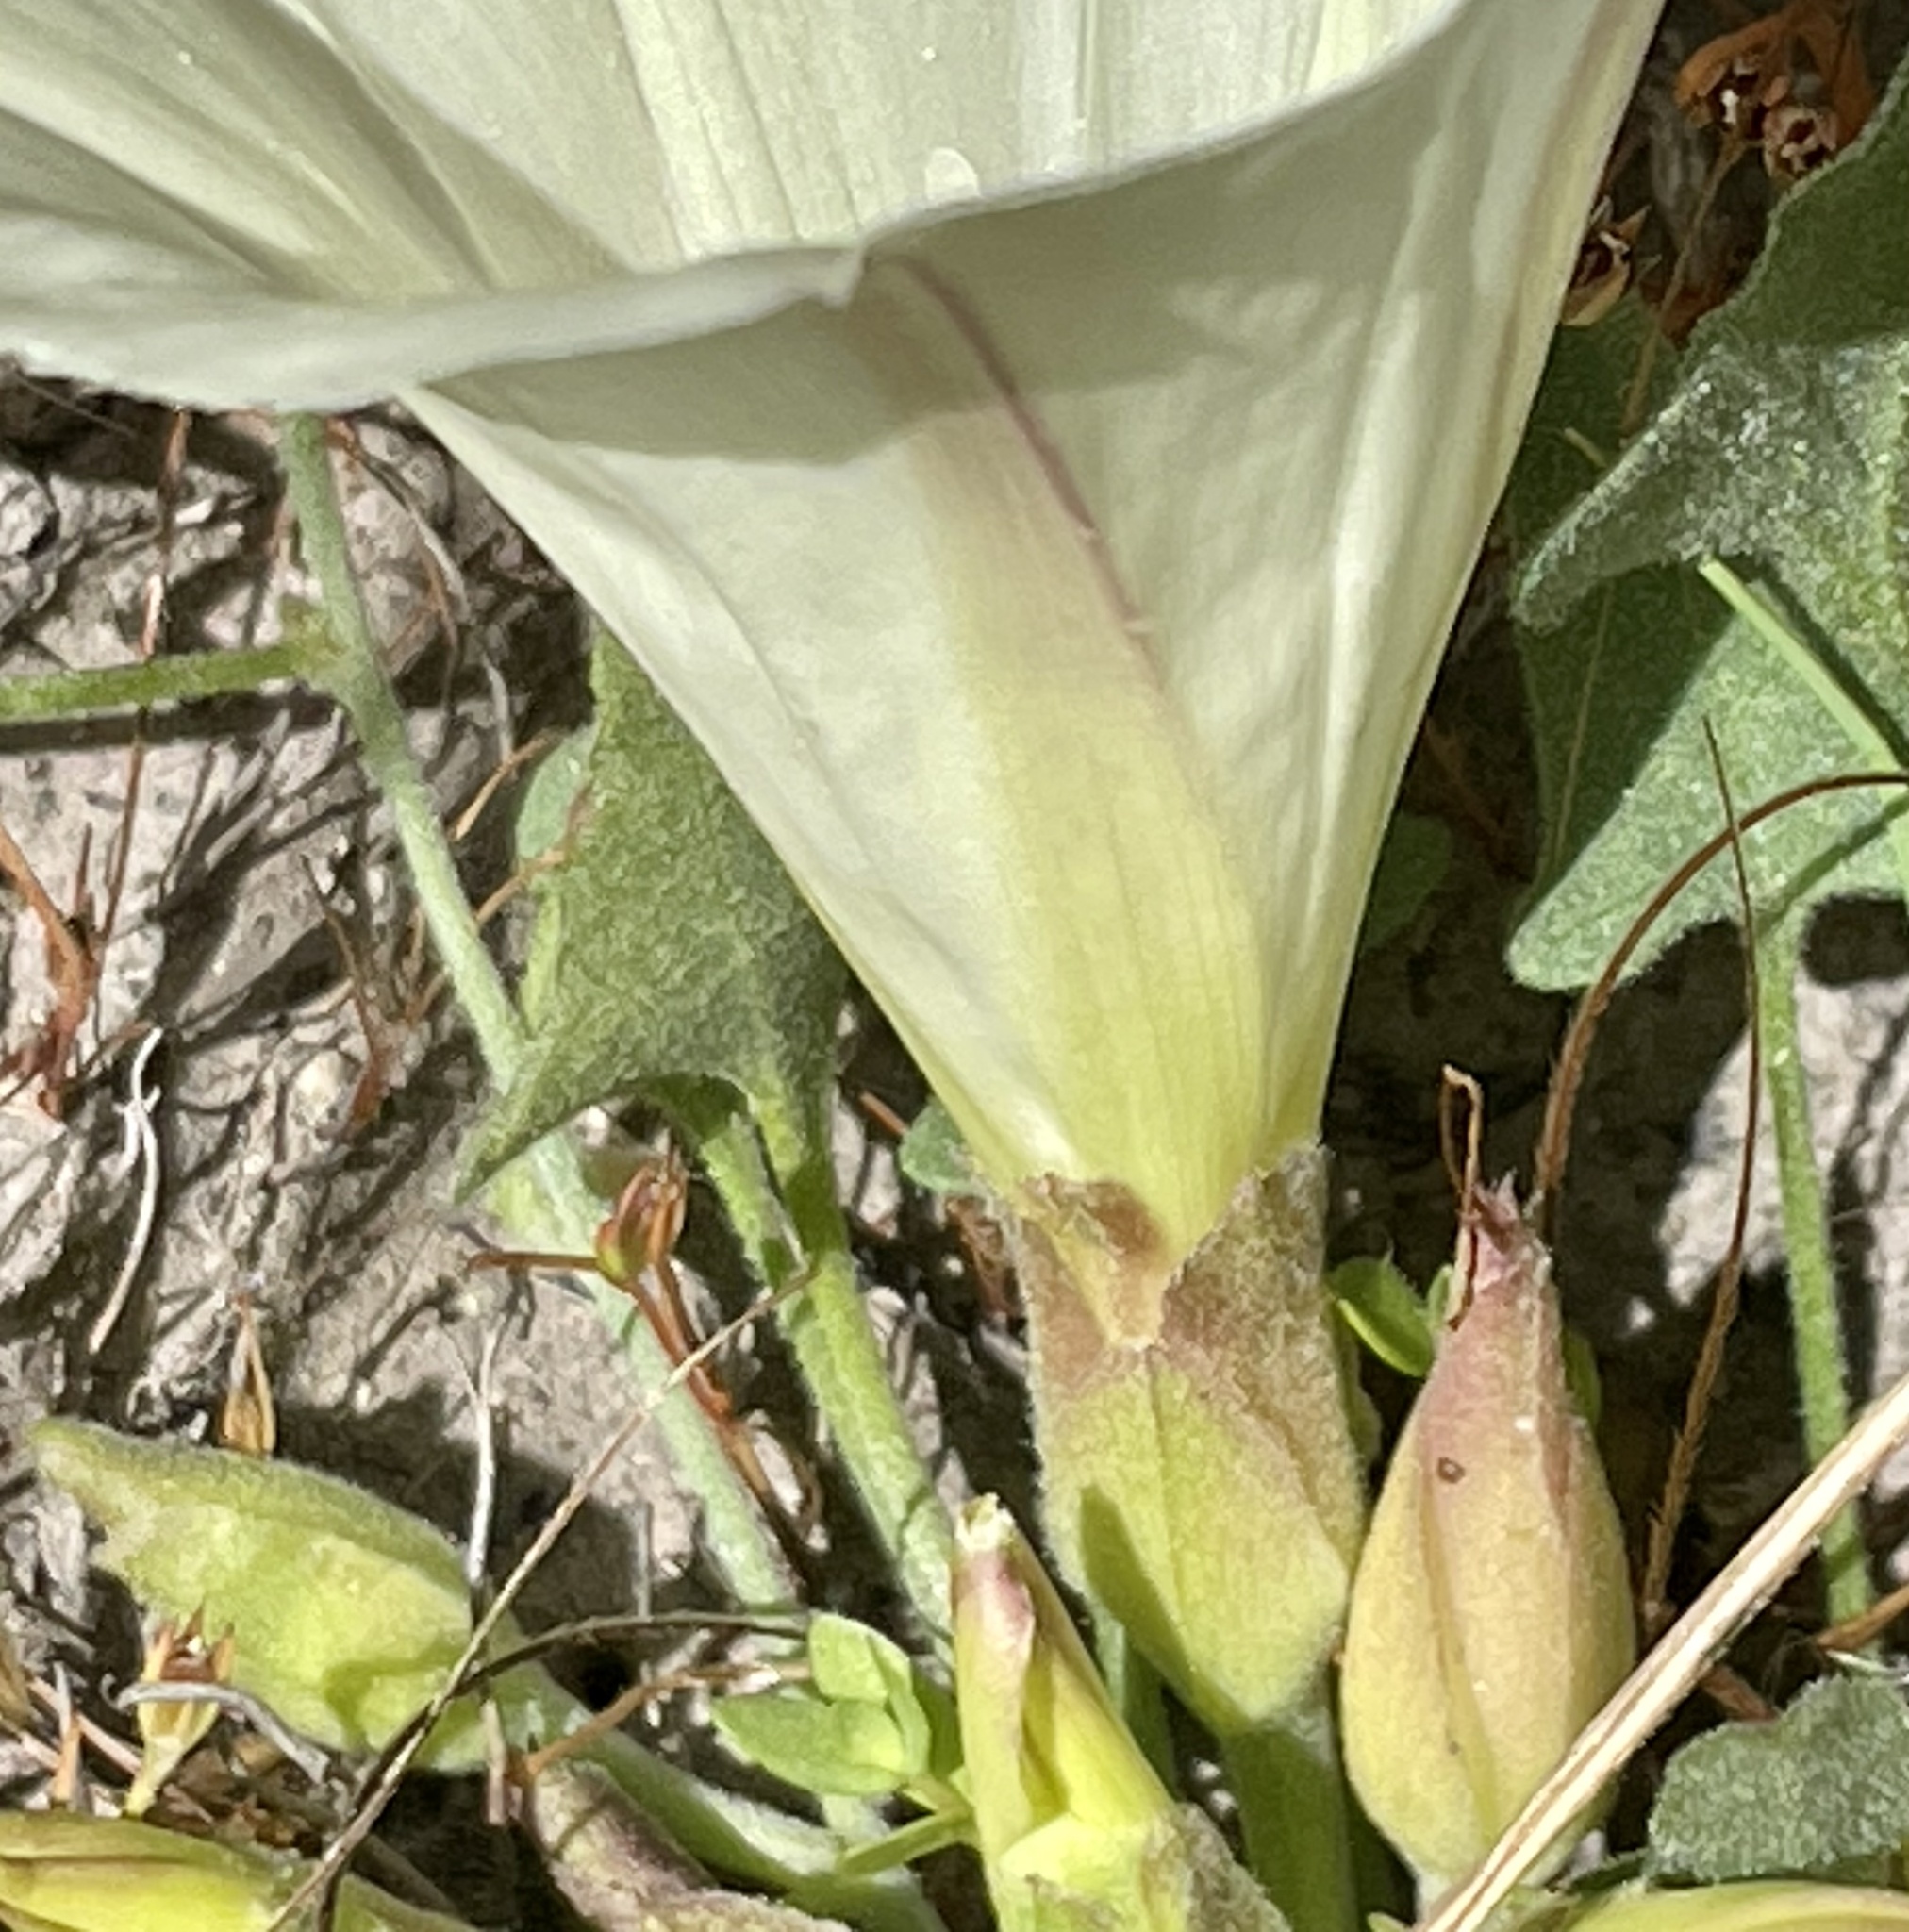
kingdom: Plantae
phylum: Tracheophyta
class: Magnoliopsida
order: Solanales
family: Convolvulaceae
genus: Calystegia
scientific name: Calystegia subacaulis
